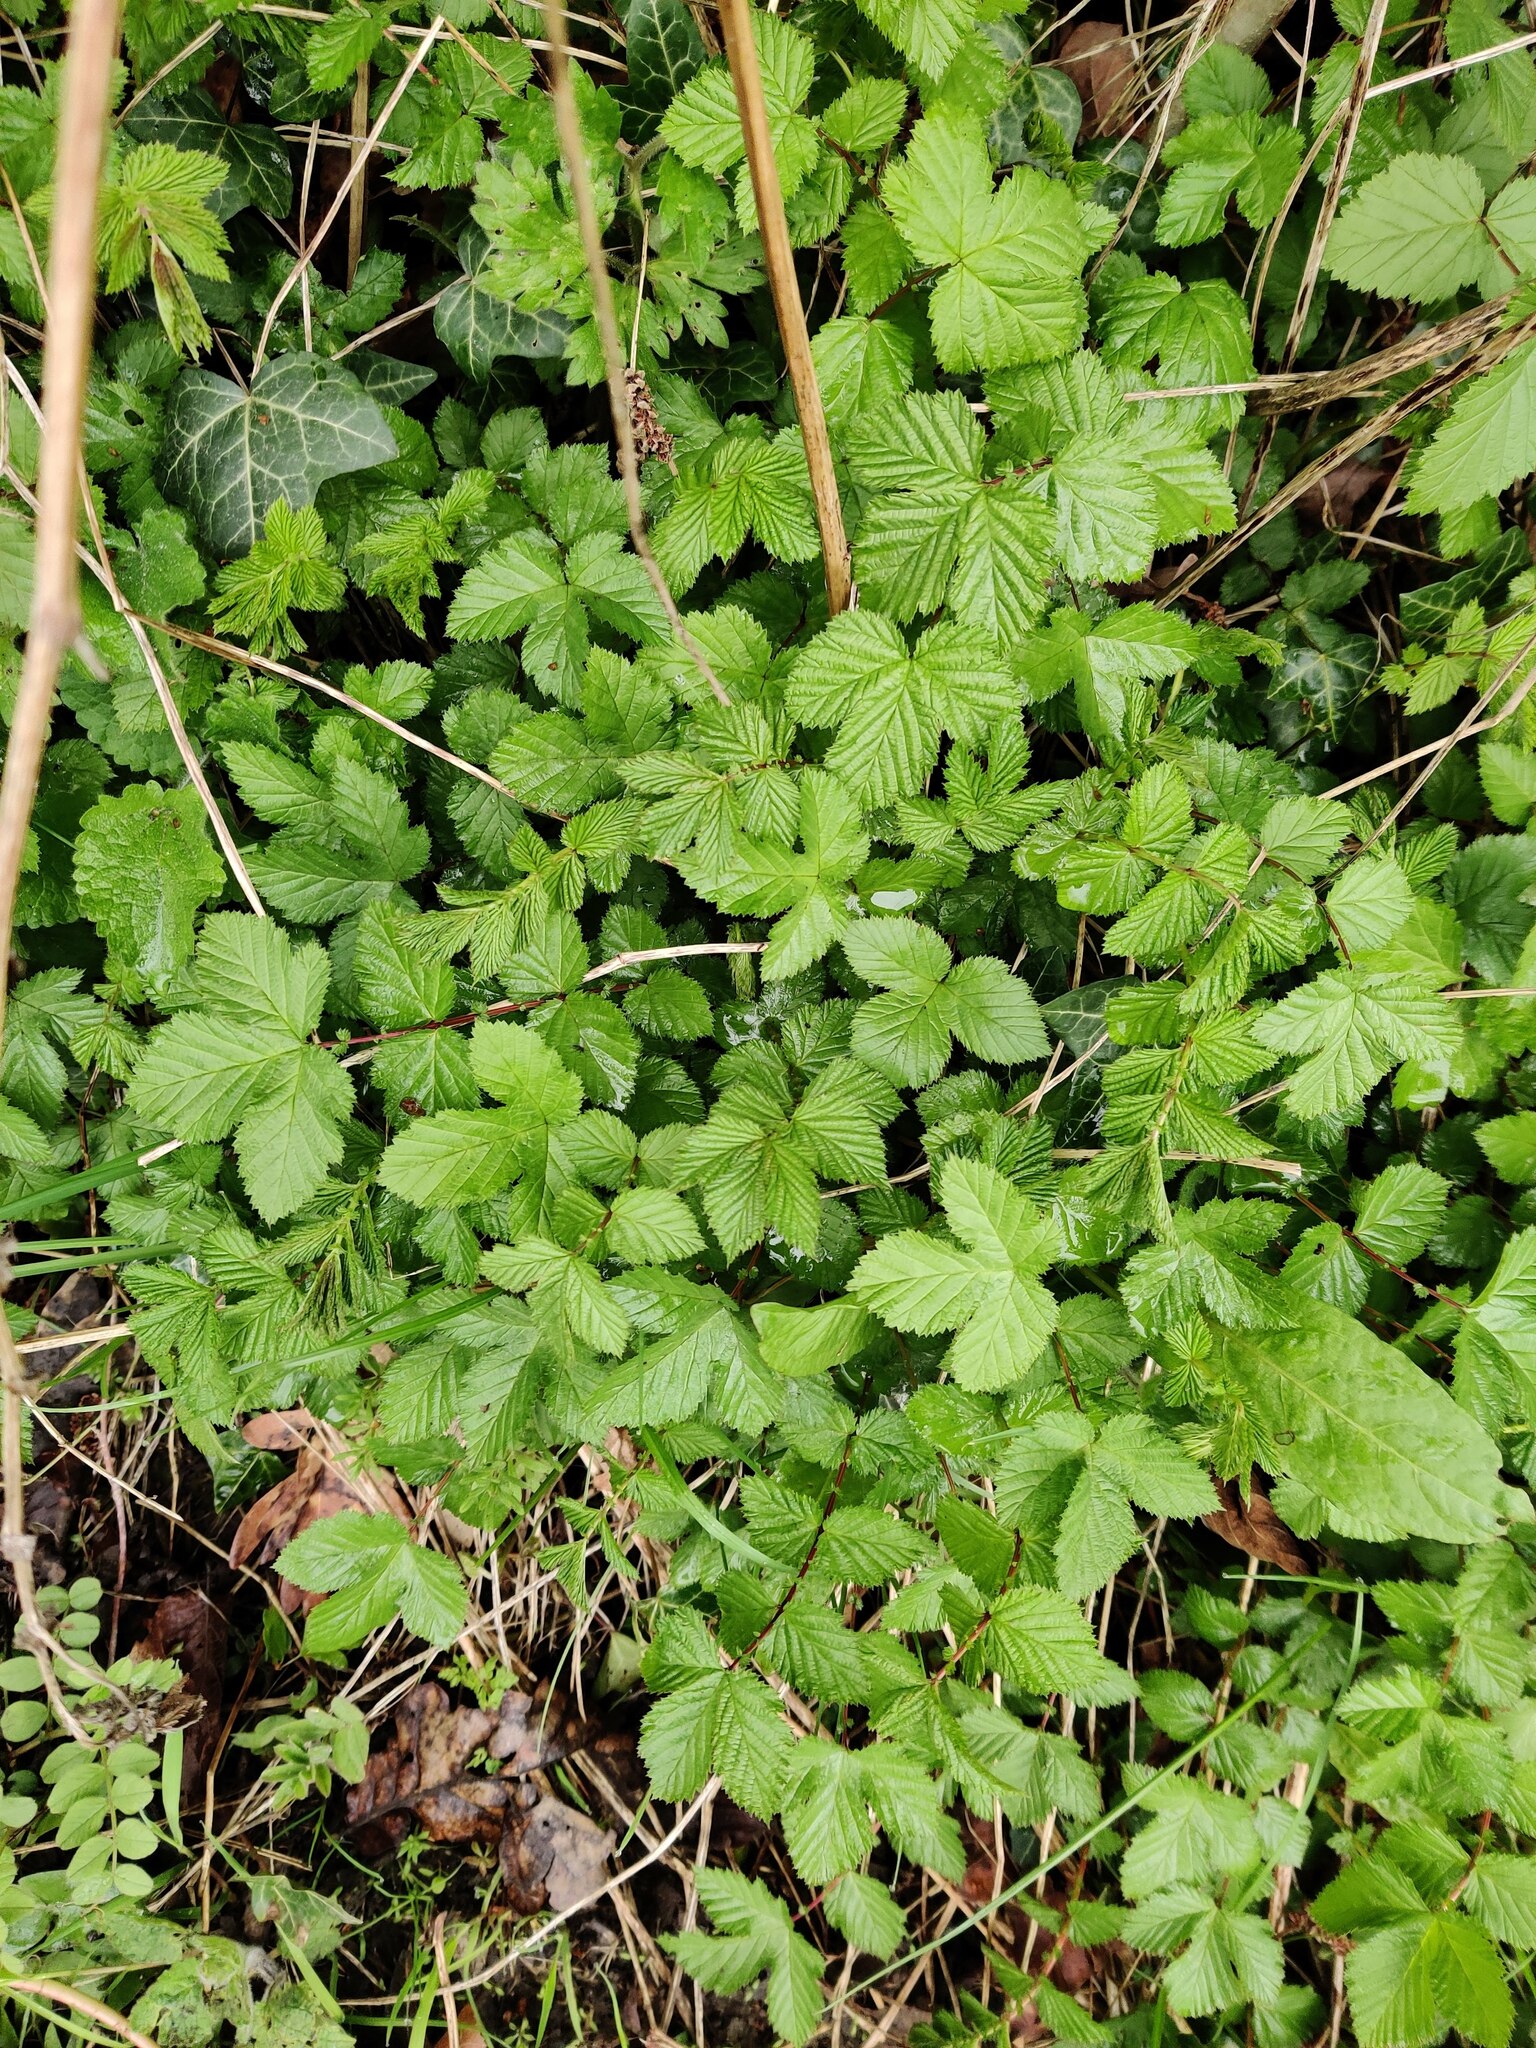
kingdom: Plantae
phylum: Tracheophyta
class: Magnoliopsida
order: Rosales
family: Rosaceae
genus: Filipendula
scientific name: Filipendula ulmaria
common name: Meadowsweet
